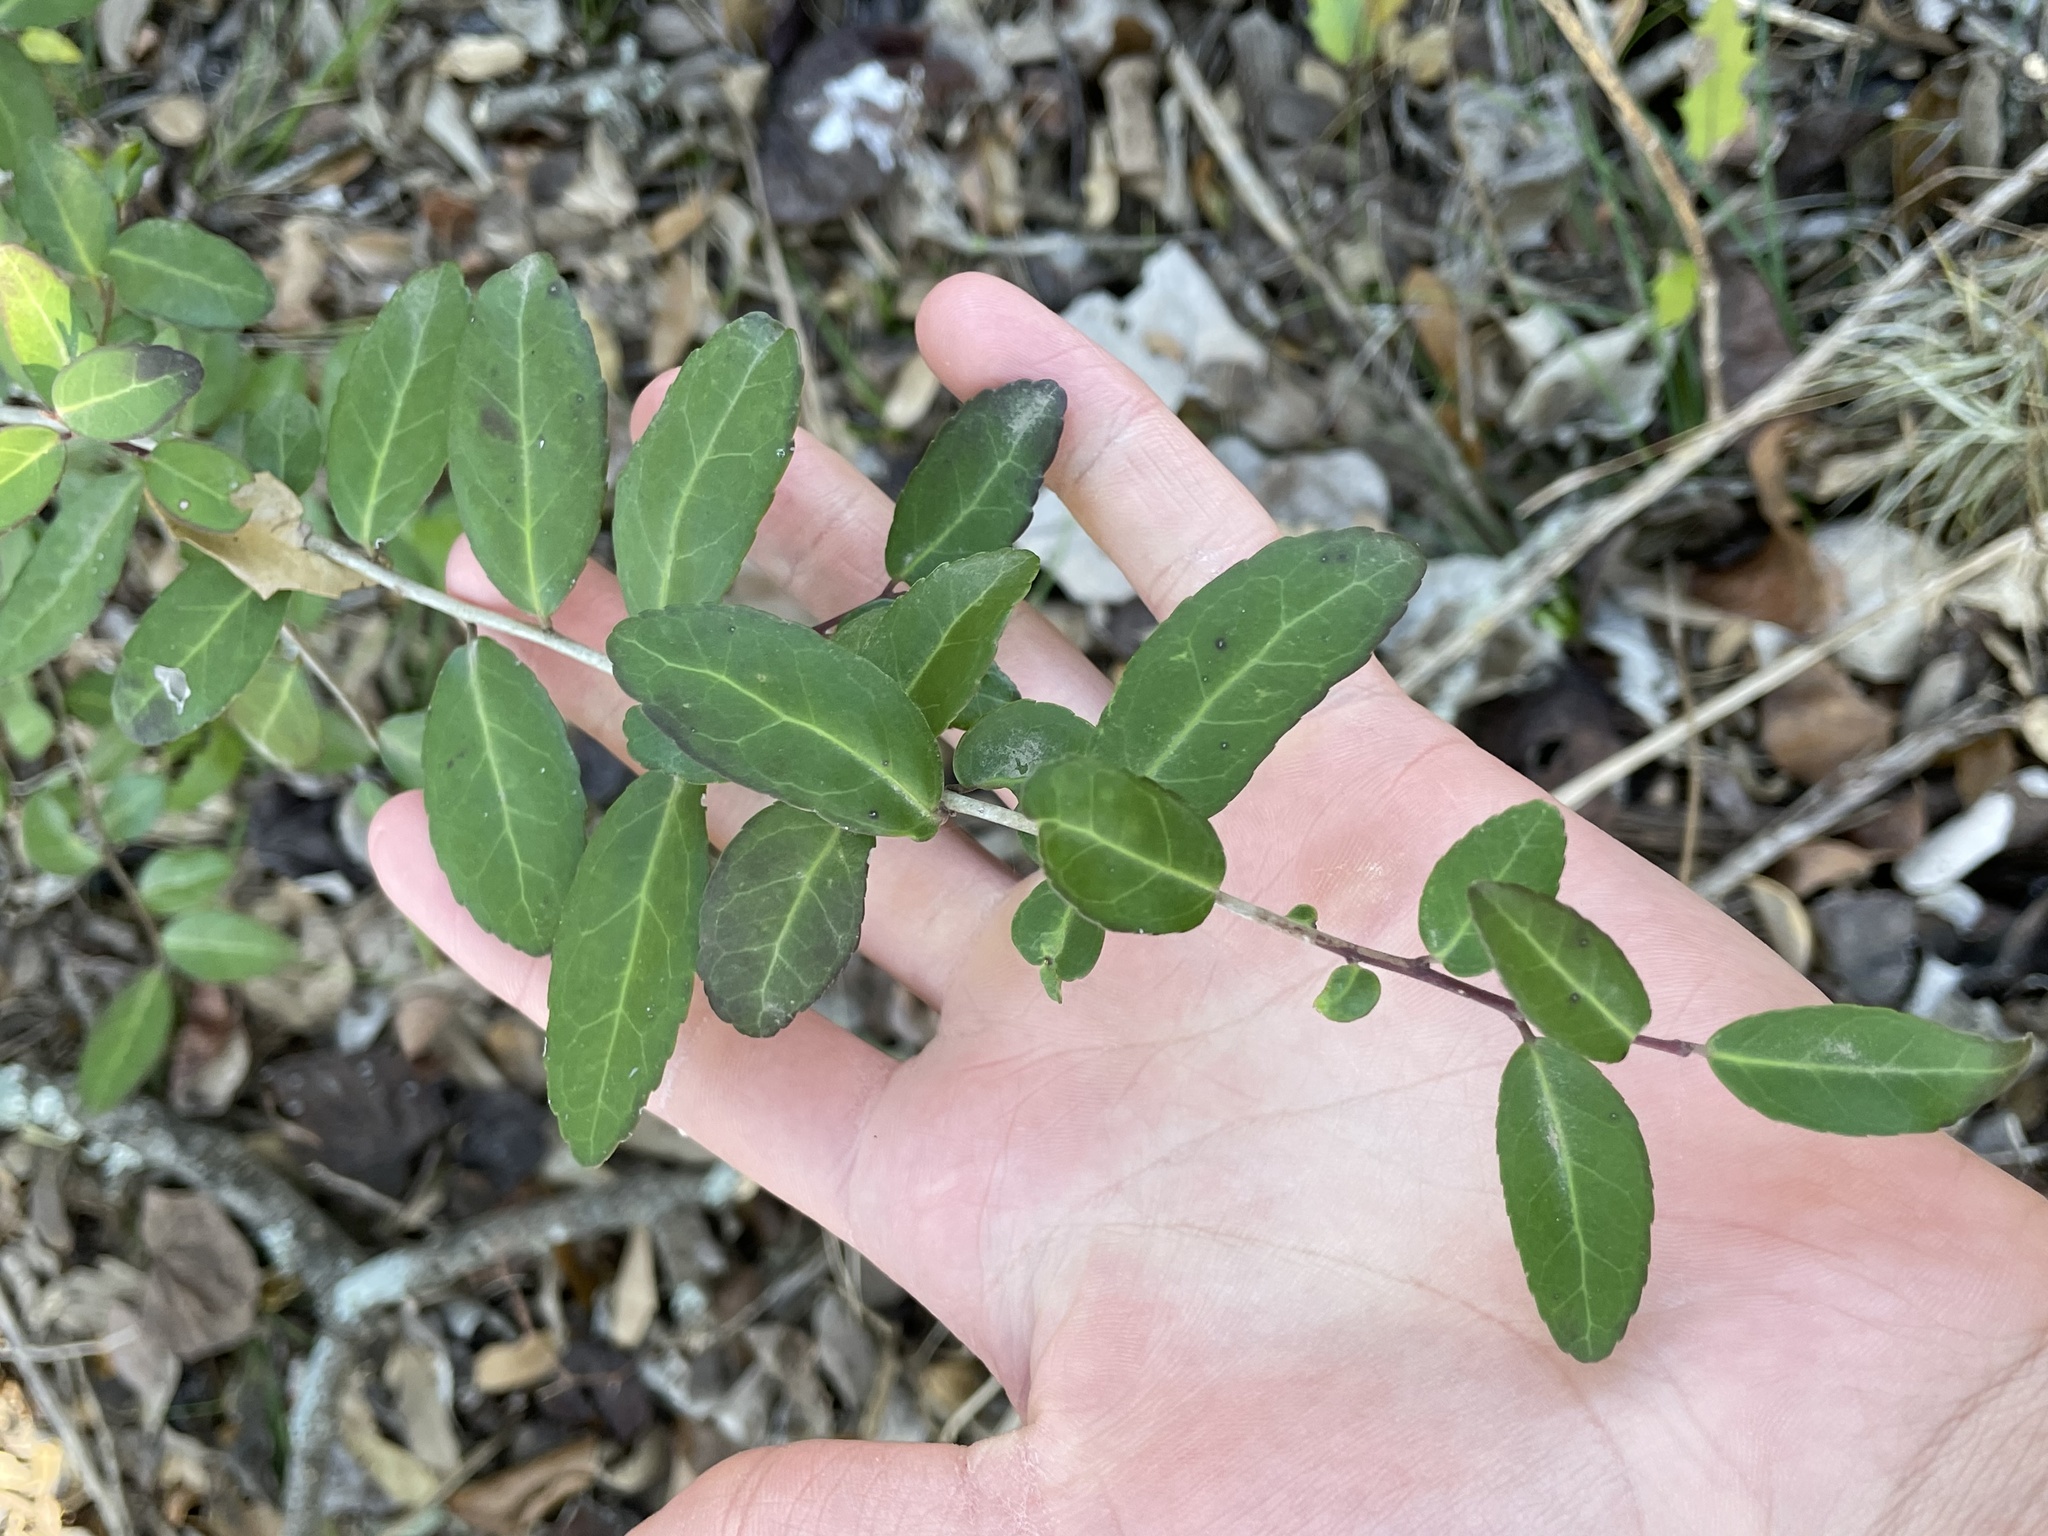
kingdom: Plantae
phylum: Tracheophyta
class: Magnoliopsida
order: Aquifoliales
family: Aquifoliaceae
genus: Ilex
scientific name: Ilex vomitoria
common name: Yaupon holly
